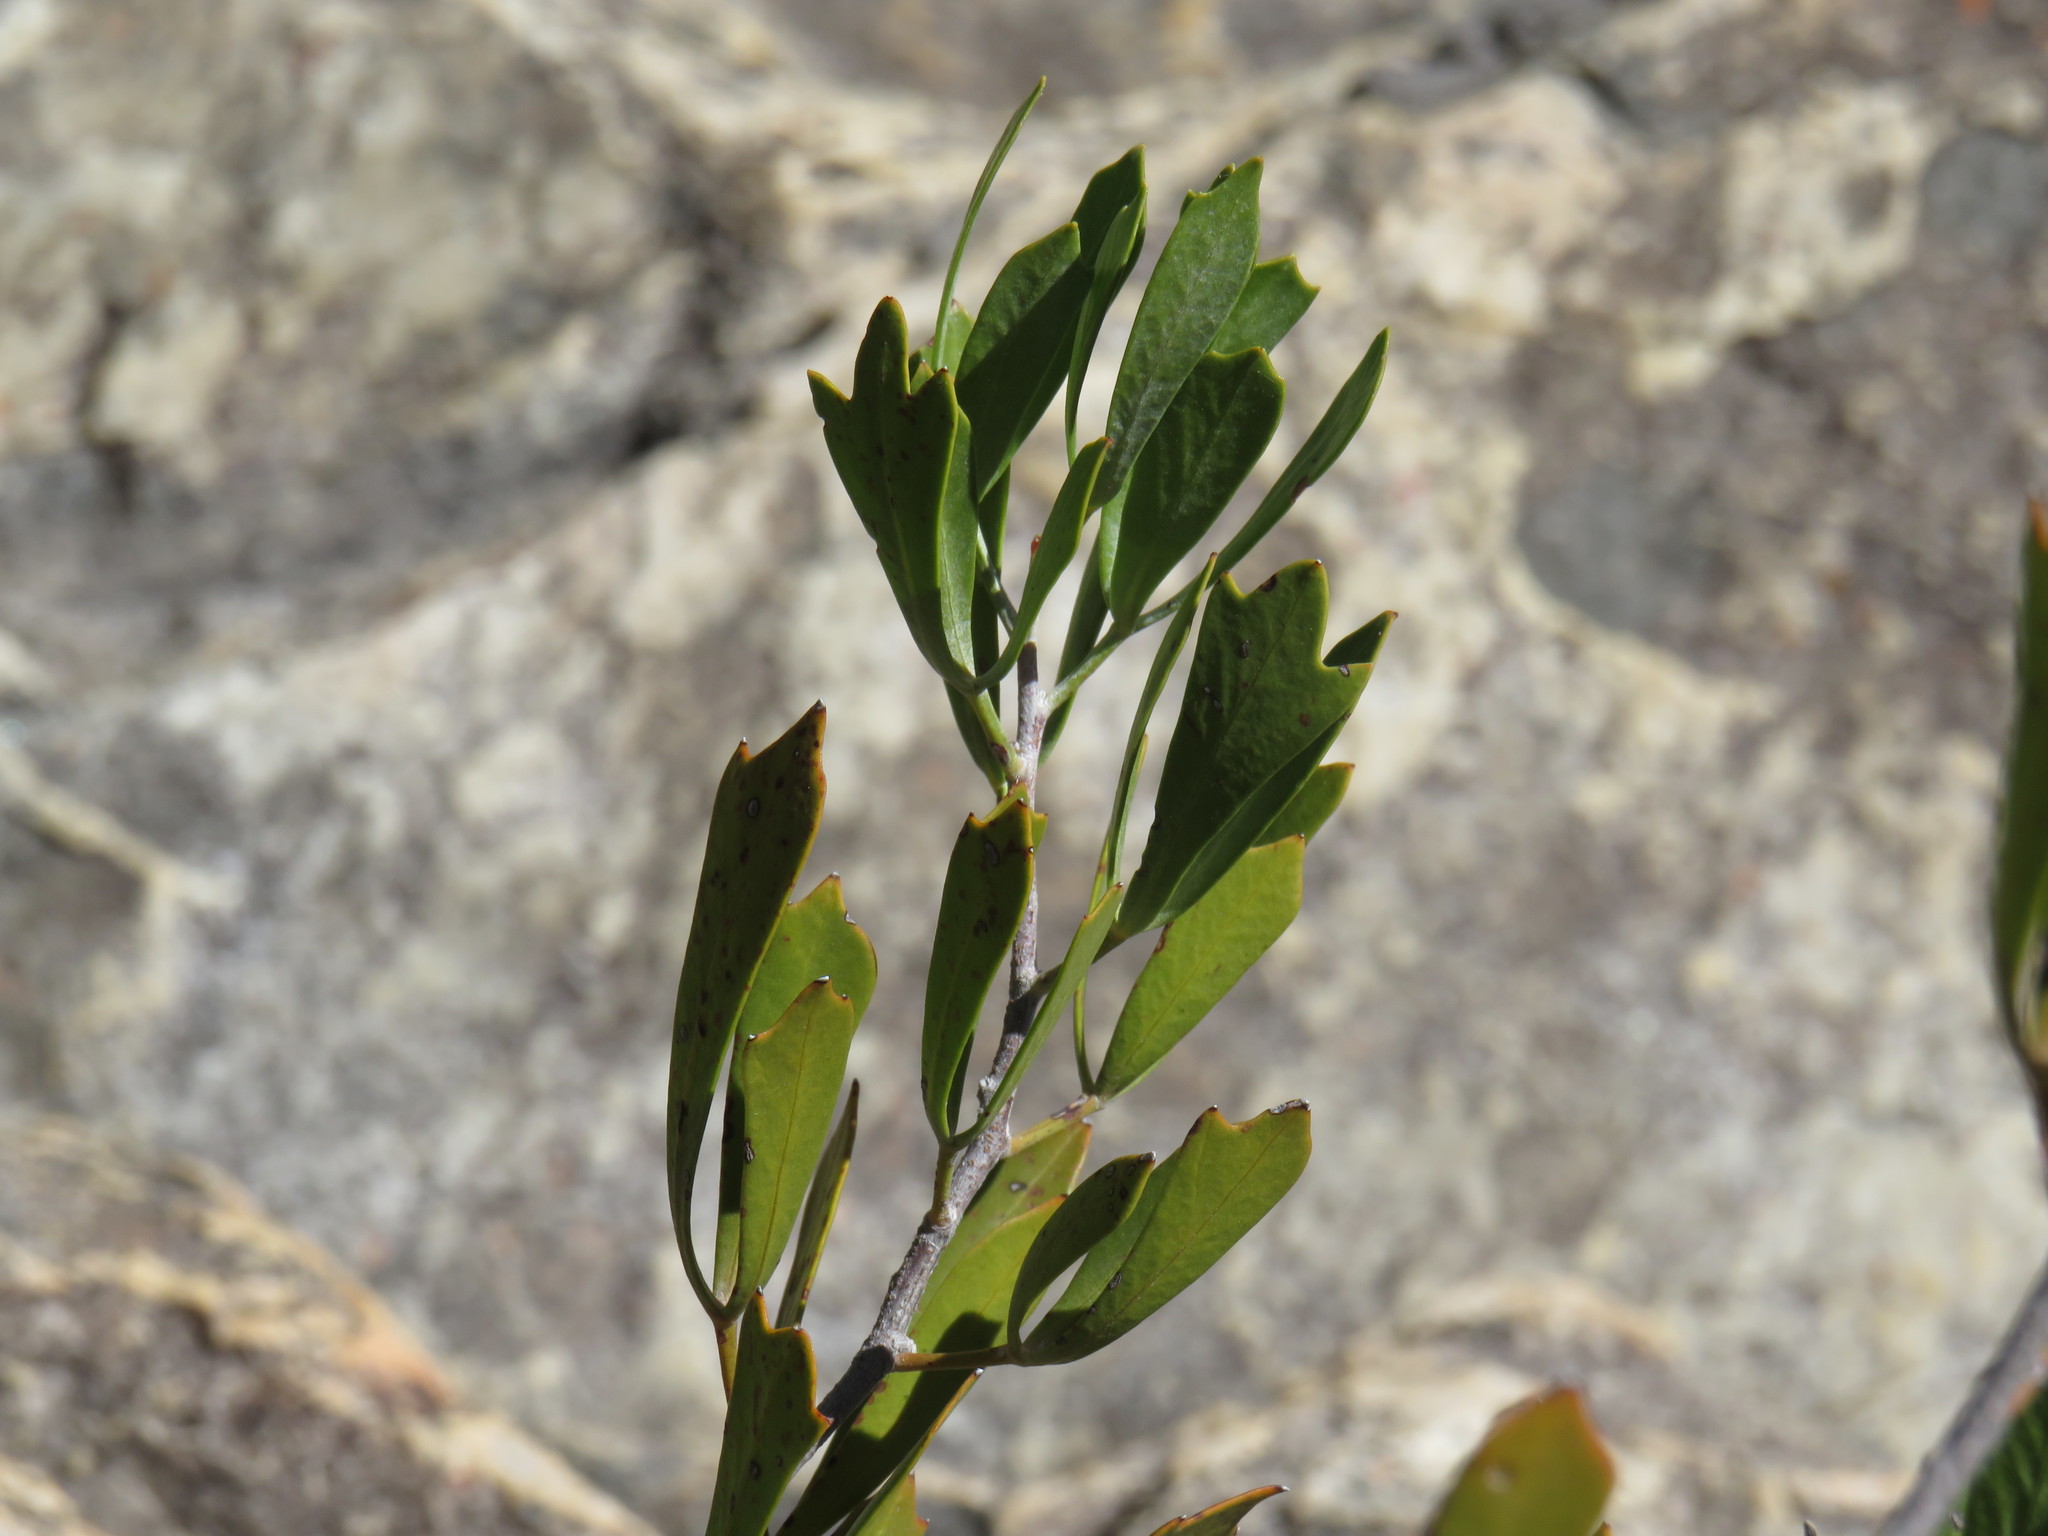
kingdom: Plantae
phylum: Tracheophyta
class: Magnoliopsida
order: Sapindales
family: Anacardiaceae
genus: Searsia
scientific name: Searsia rimosa
